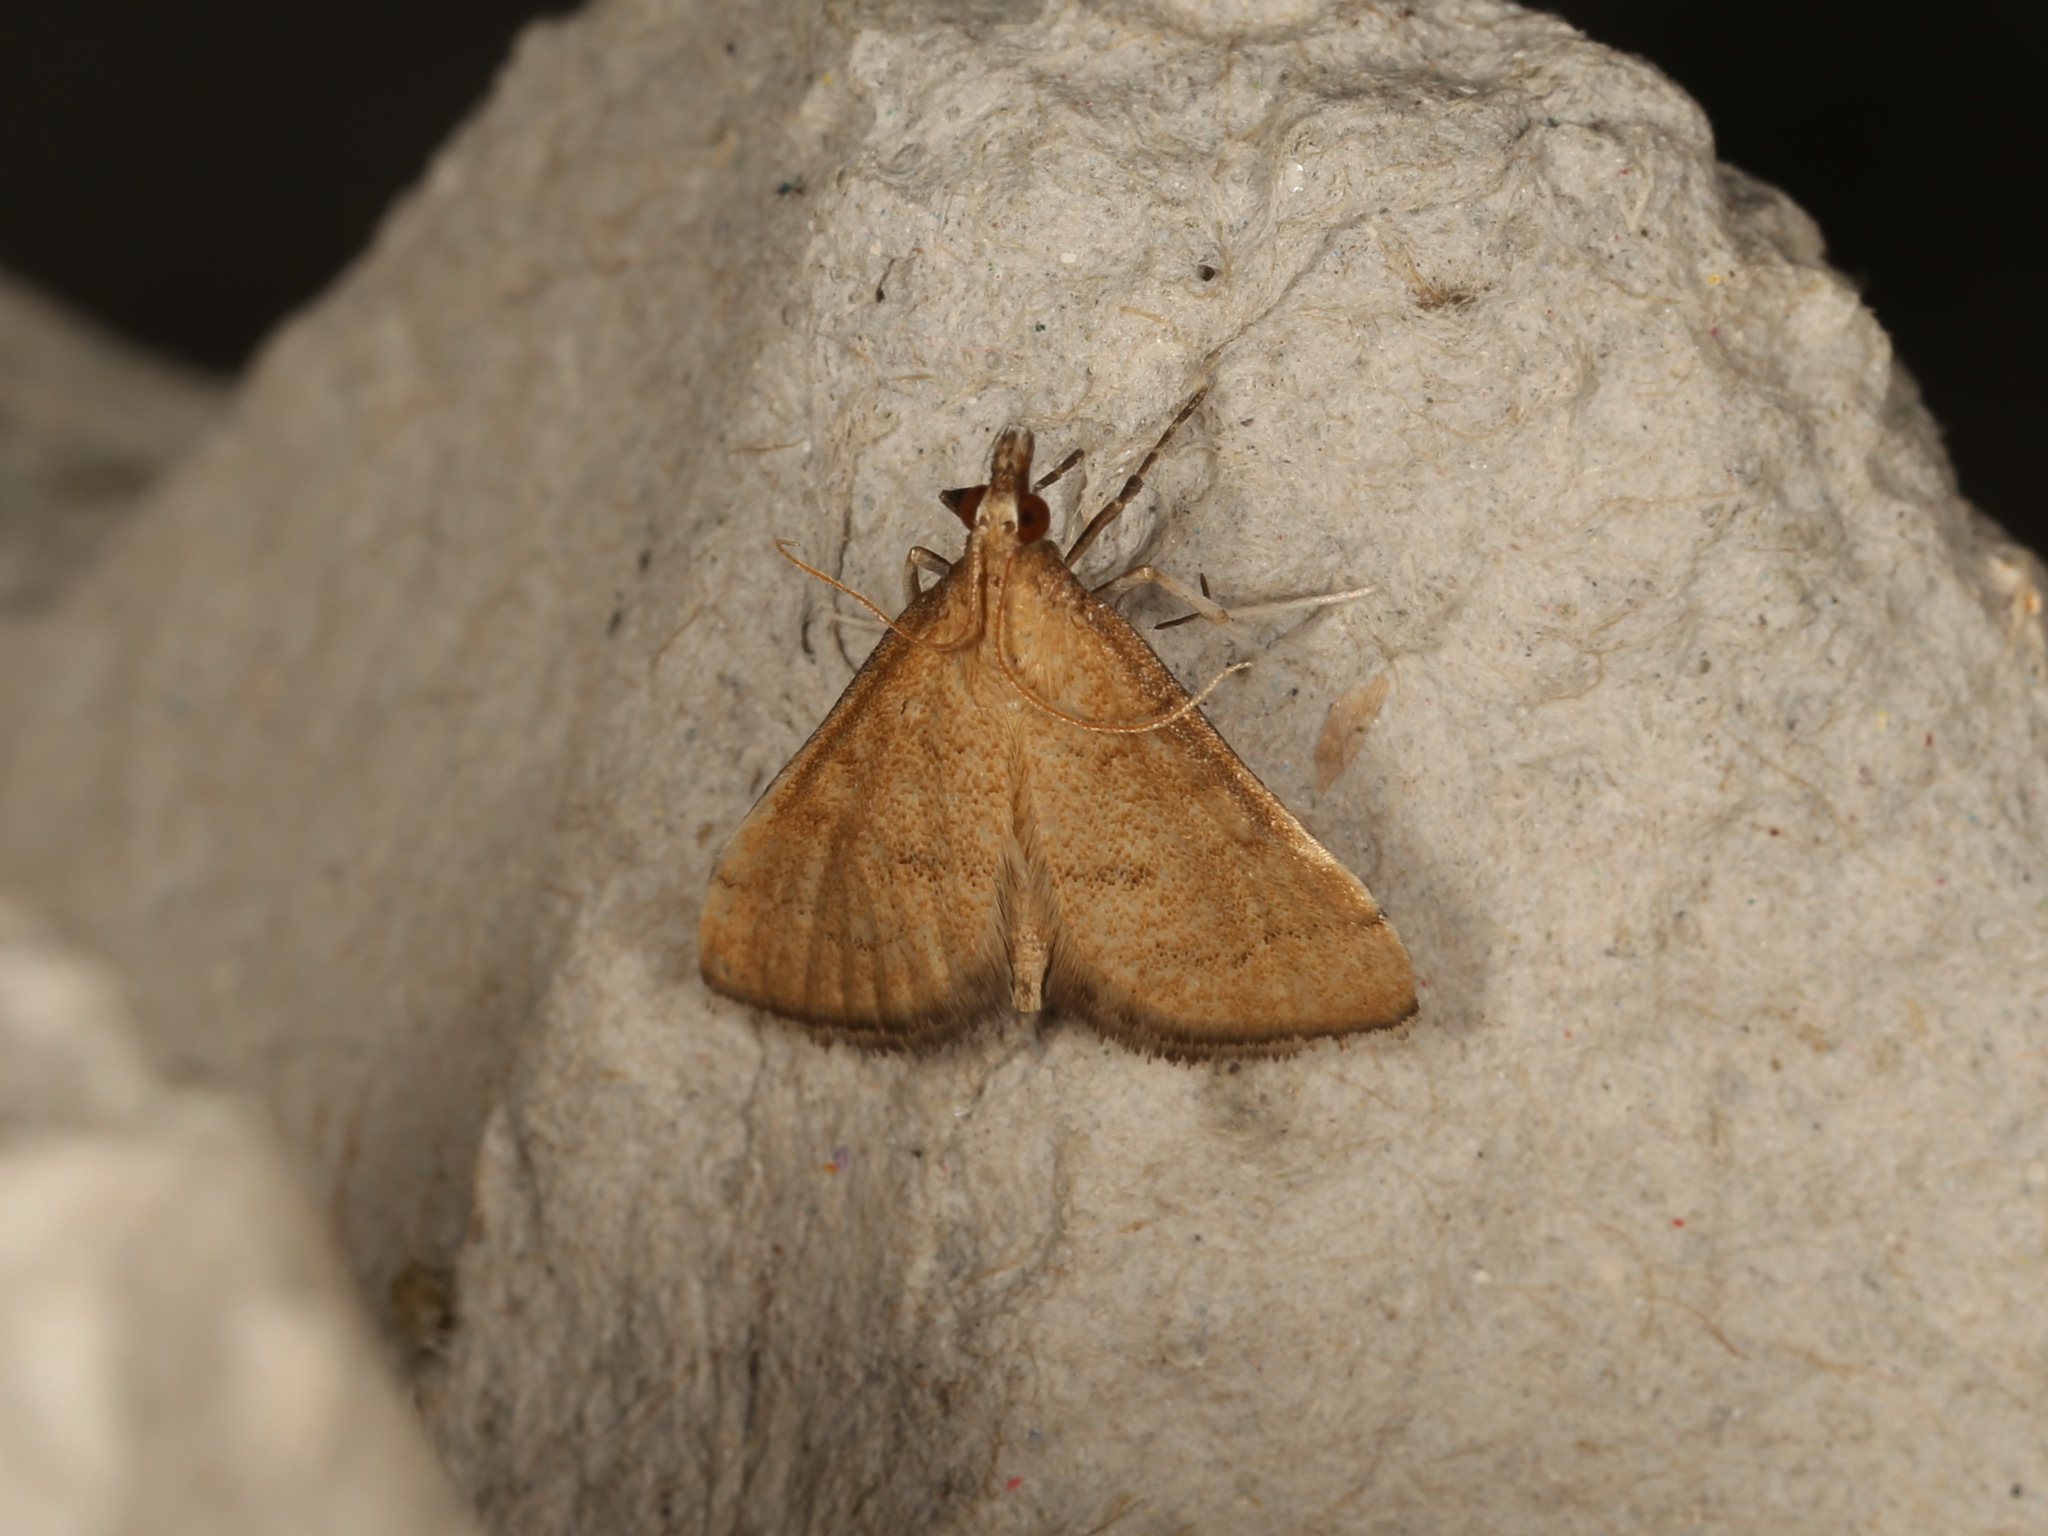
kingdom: Animalia
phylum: Arthropoda
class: Insecta
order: Lepidoptera
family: Crambidae
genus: Metasia
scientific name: Metasia familiaris
